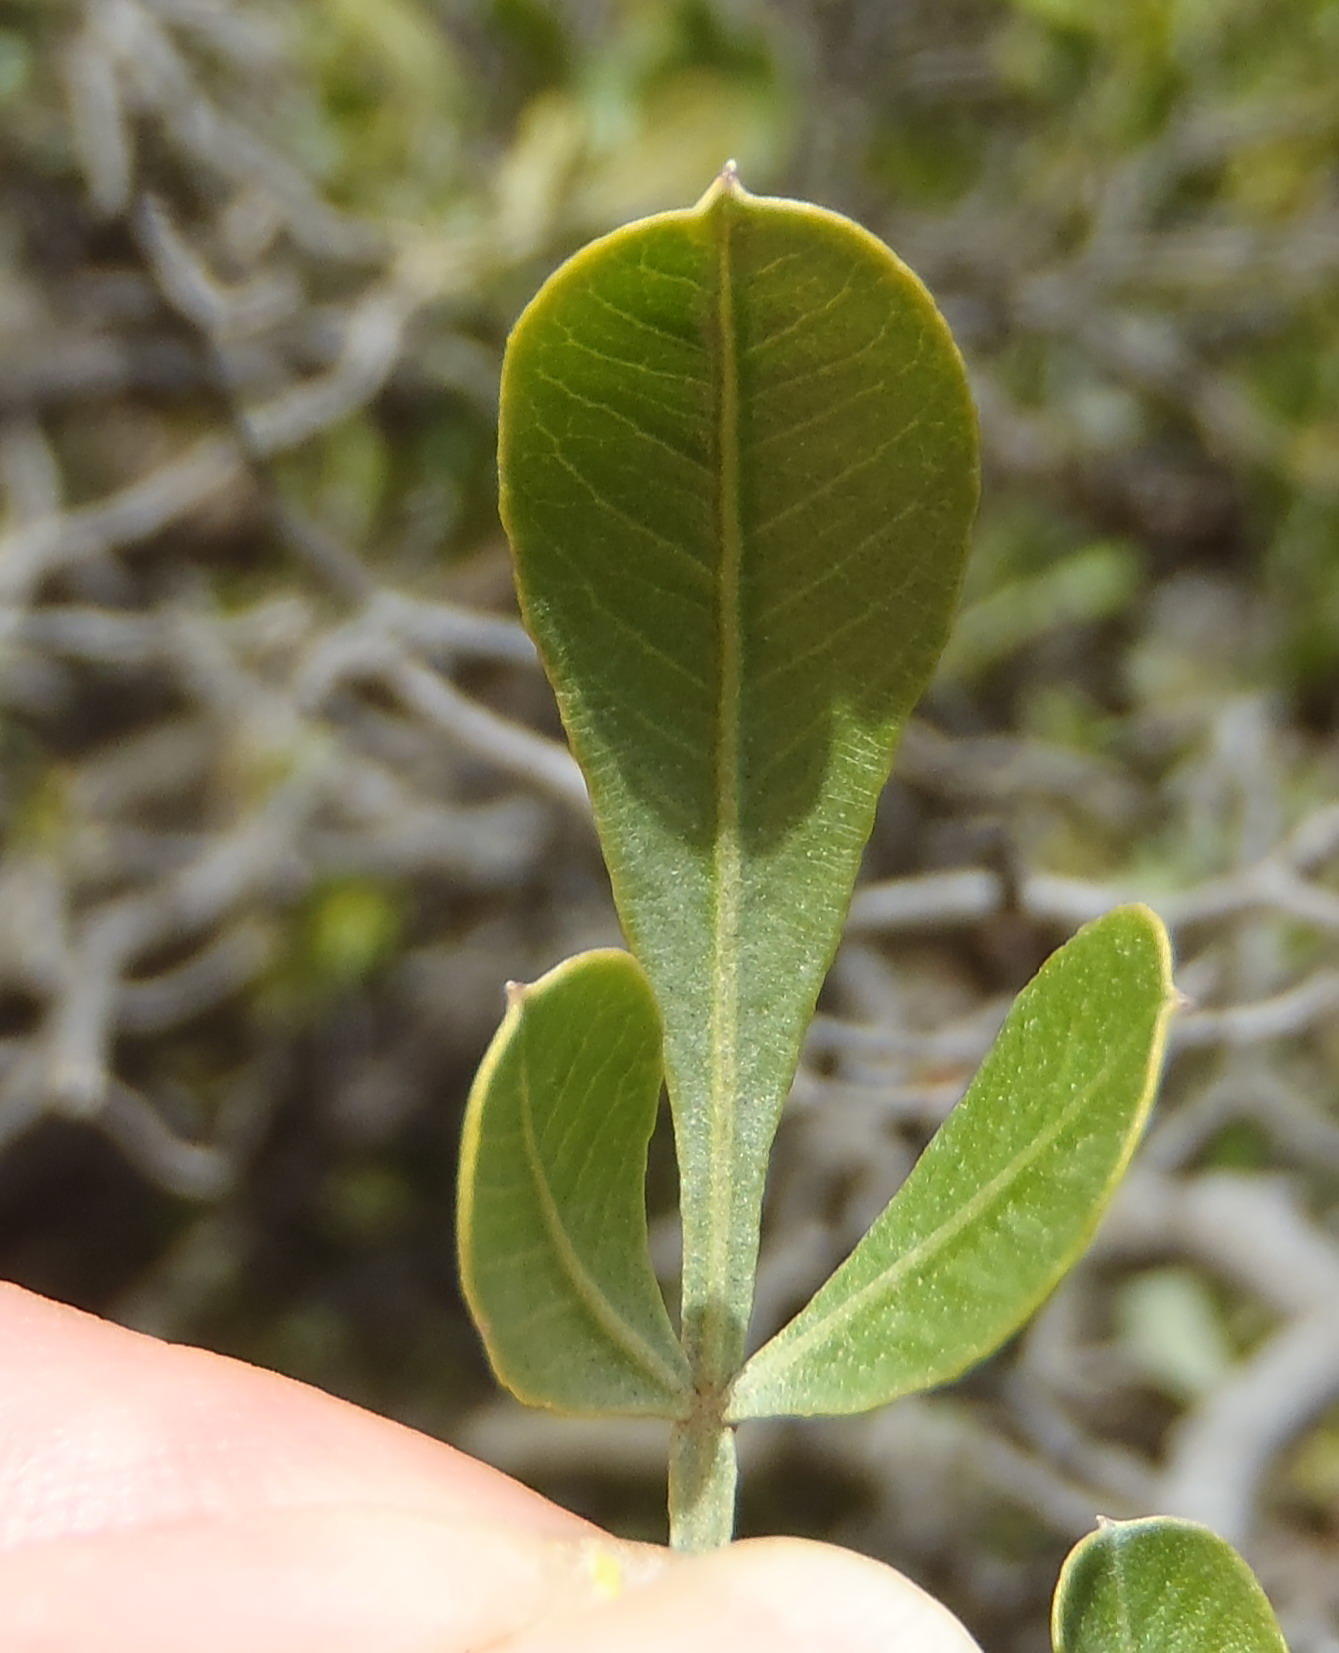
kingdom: Plantae
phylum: Tracheophyta
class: Magnoliopsida
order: Sapindales
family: Anacardiaceae
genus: Searsia
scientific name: Searsia pallens
